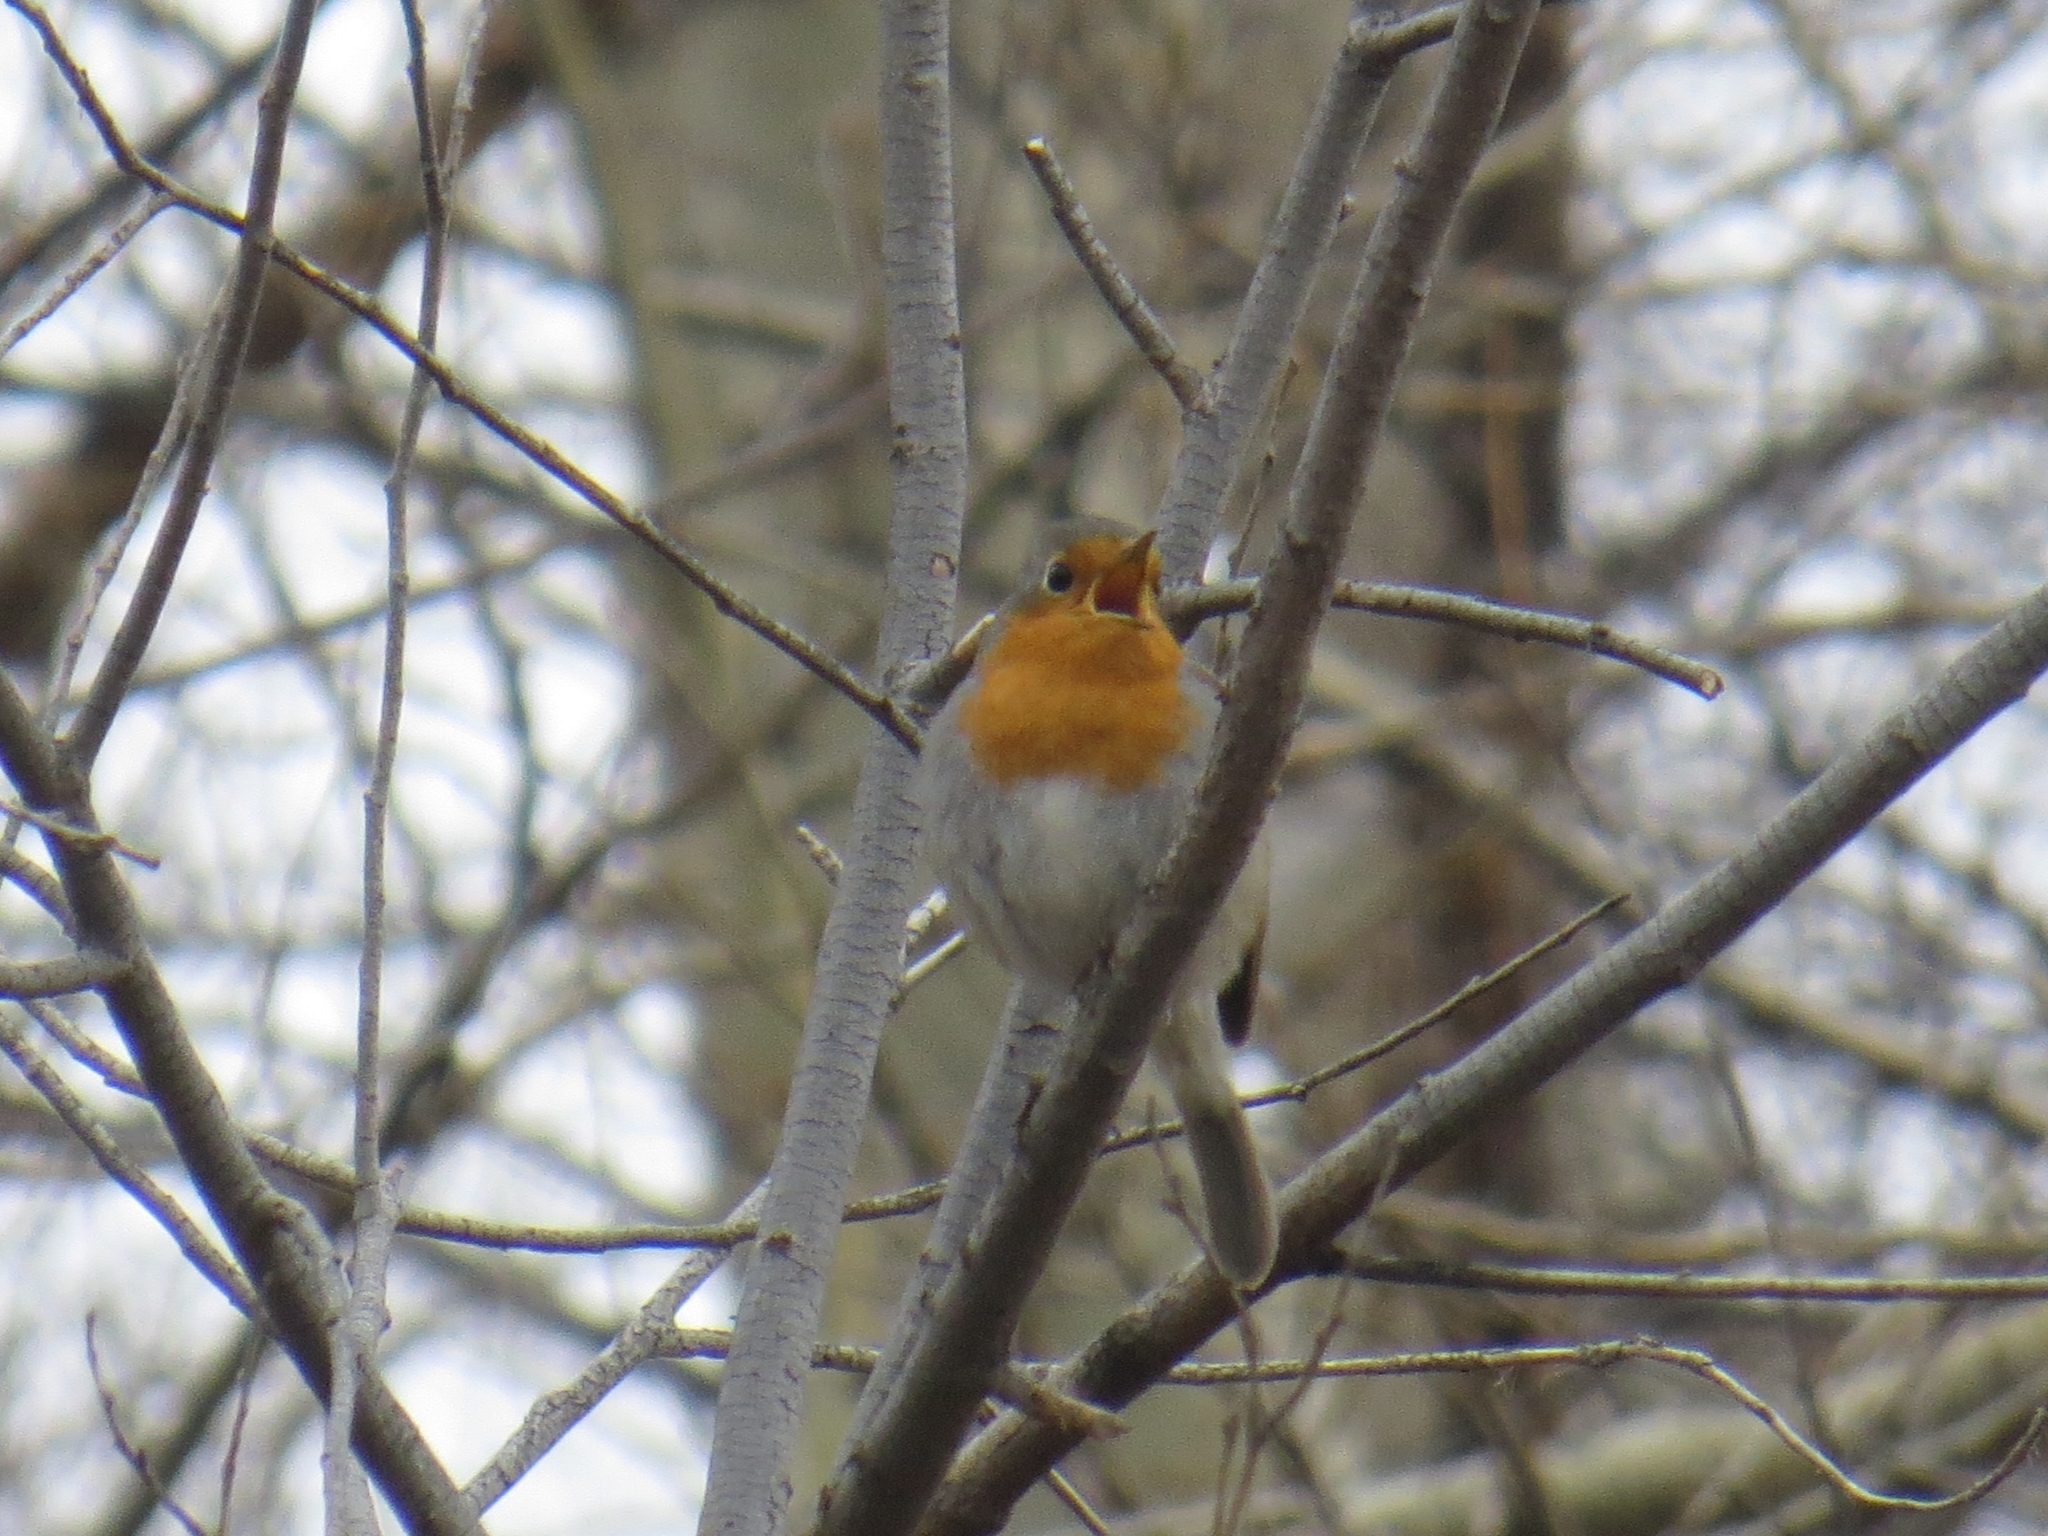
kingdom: Animalia
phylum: Chordata
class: Aves
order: Passeriformes
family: Muscicapidae
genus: Erithacus
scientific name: Erithacus rubecula
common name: European robin
